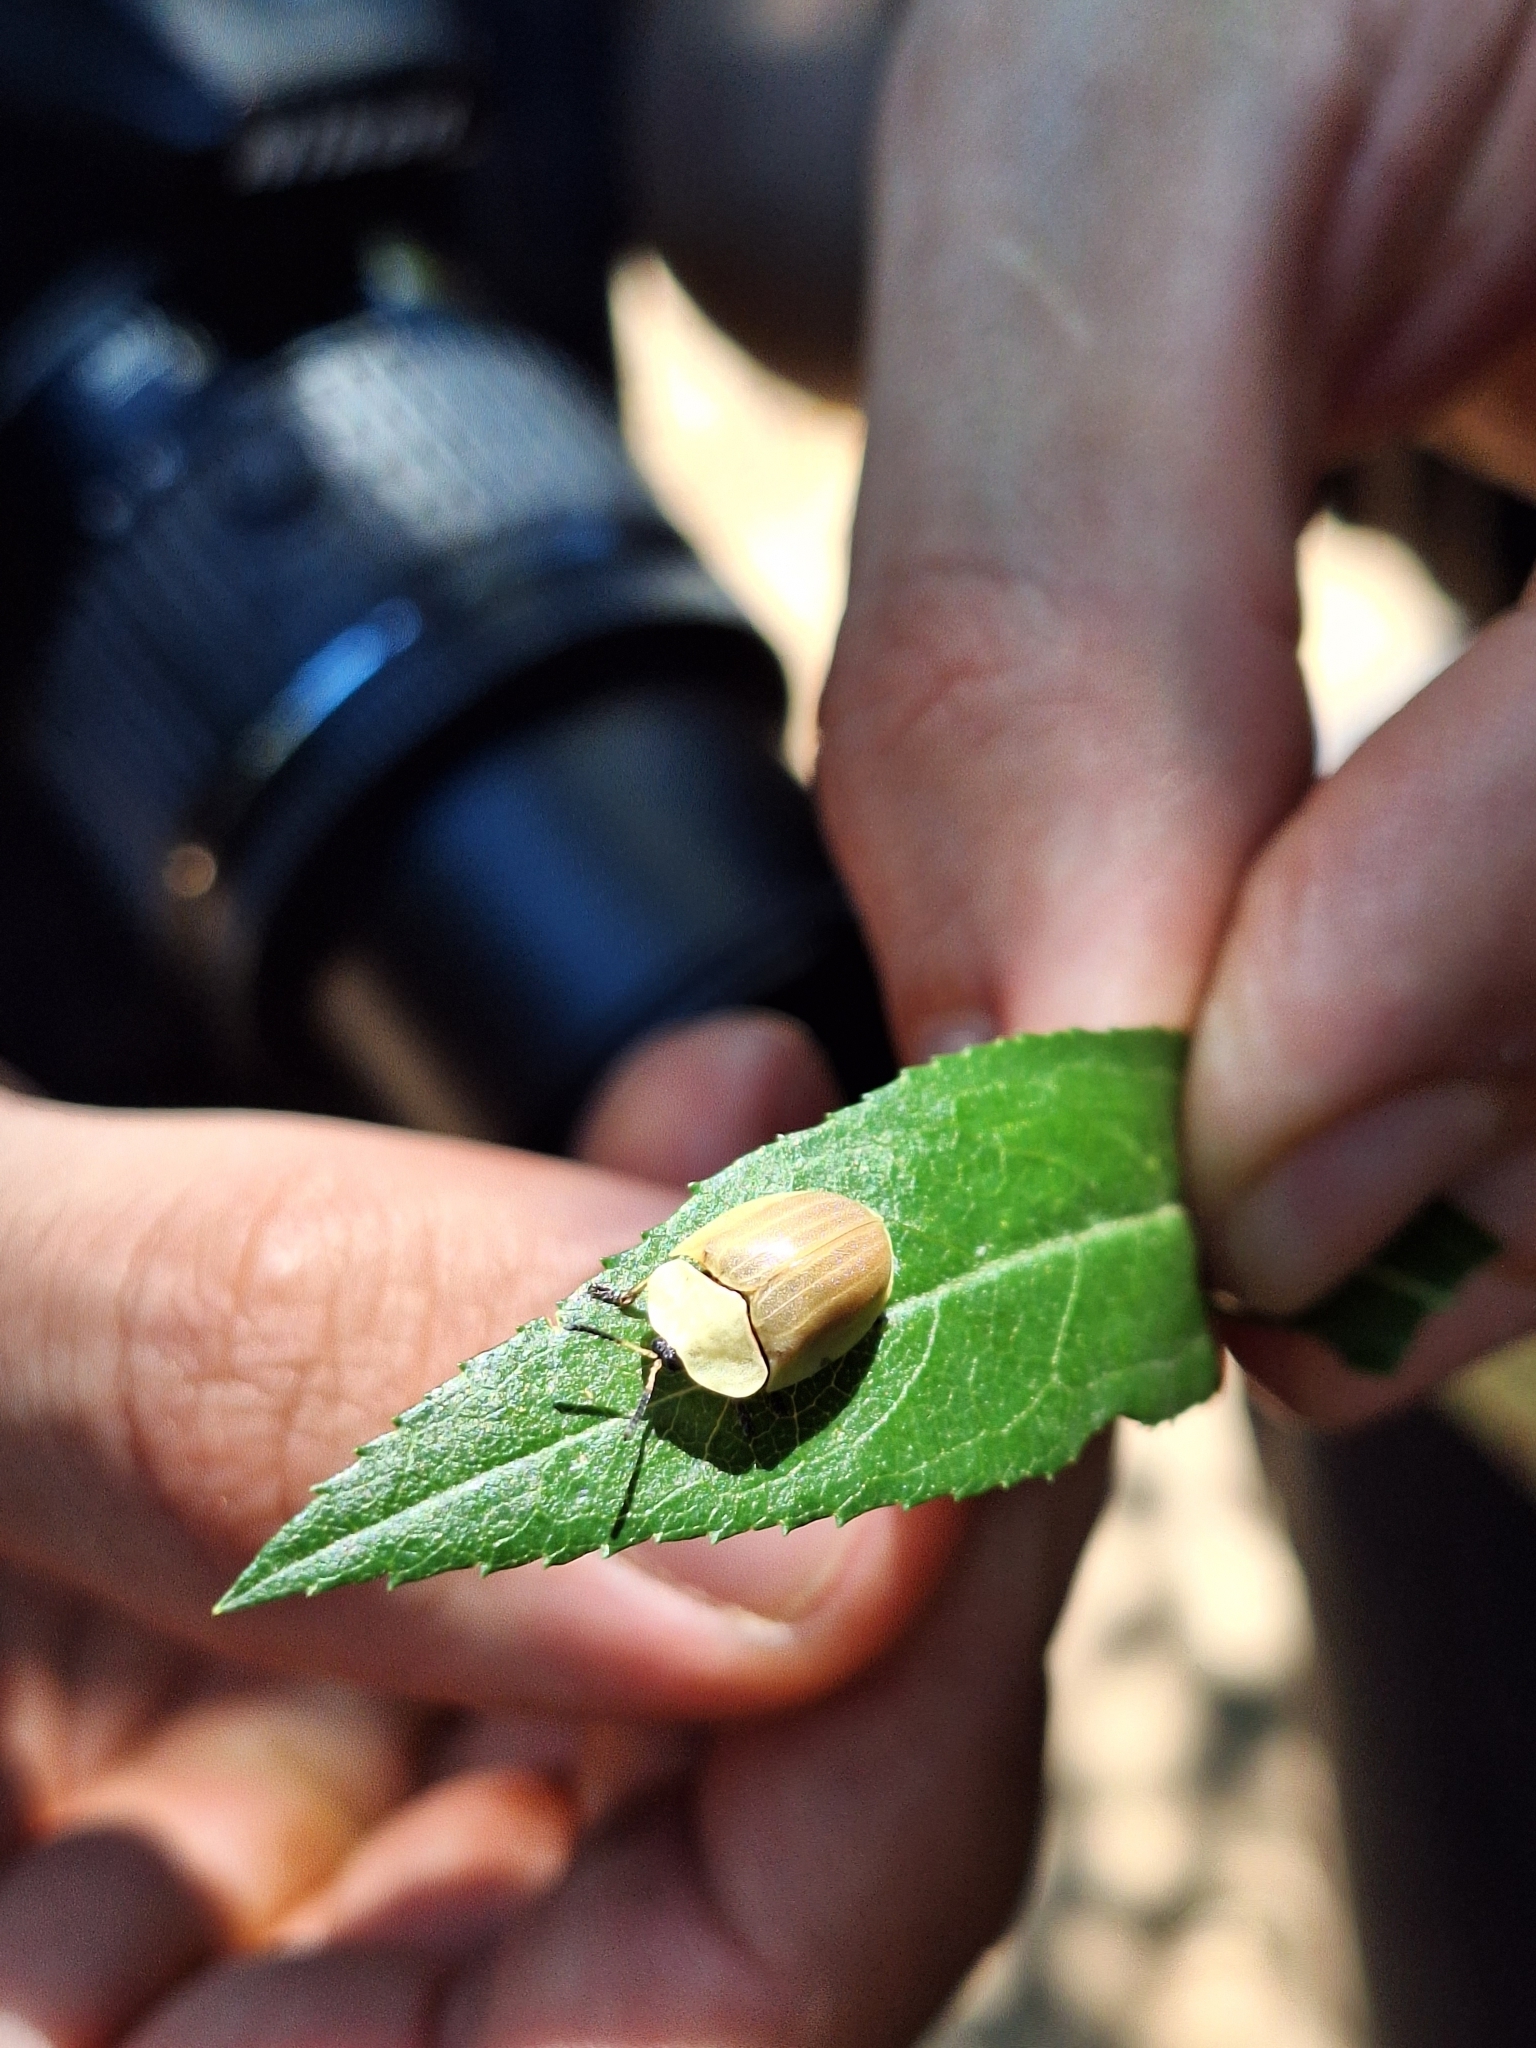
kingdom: Animalia
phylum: Arthropoda
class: Insecta
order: Coleoptera
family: Chrysomelidae
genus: Anacassis
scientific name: Anacassis fuscata
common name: Seepwillow flea beetle
